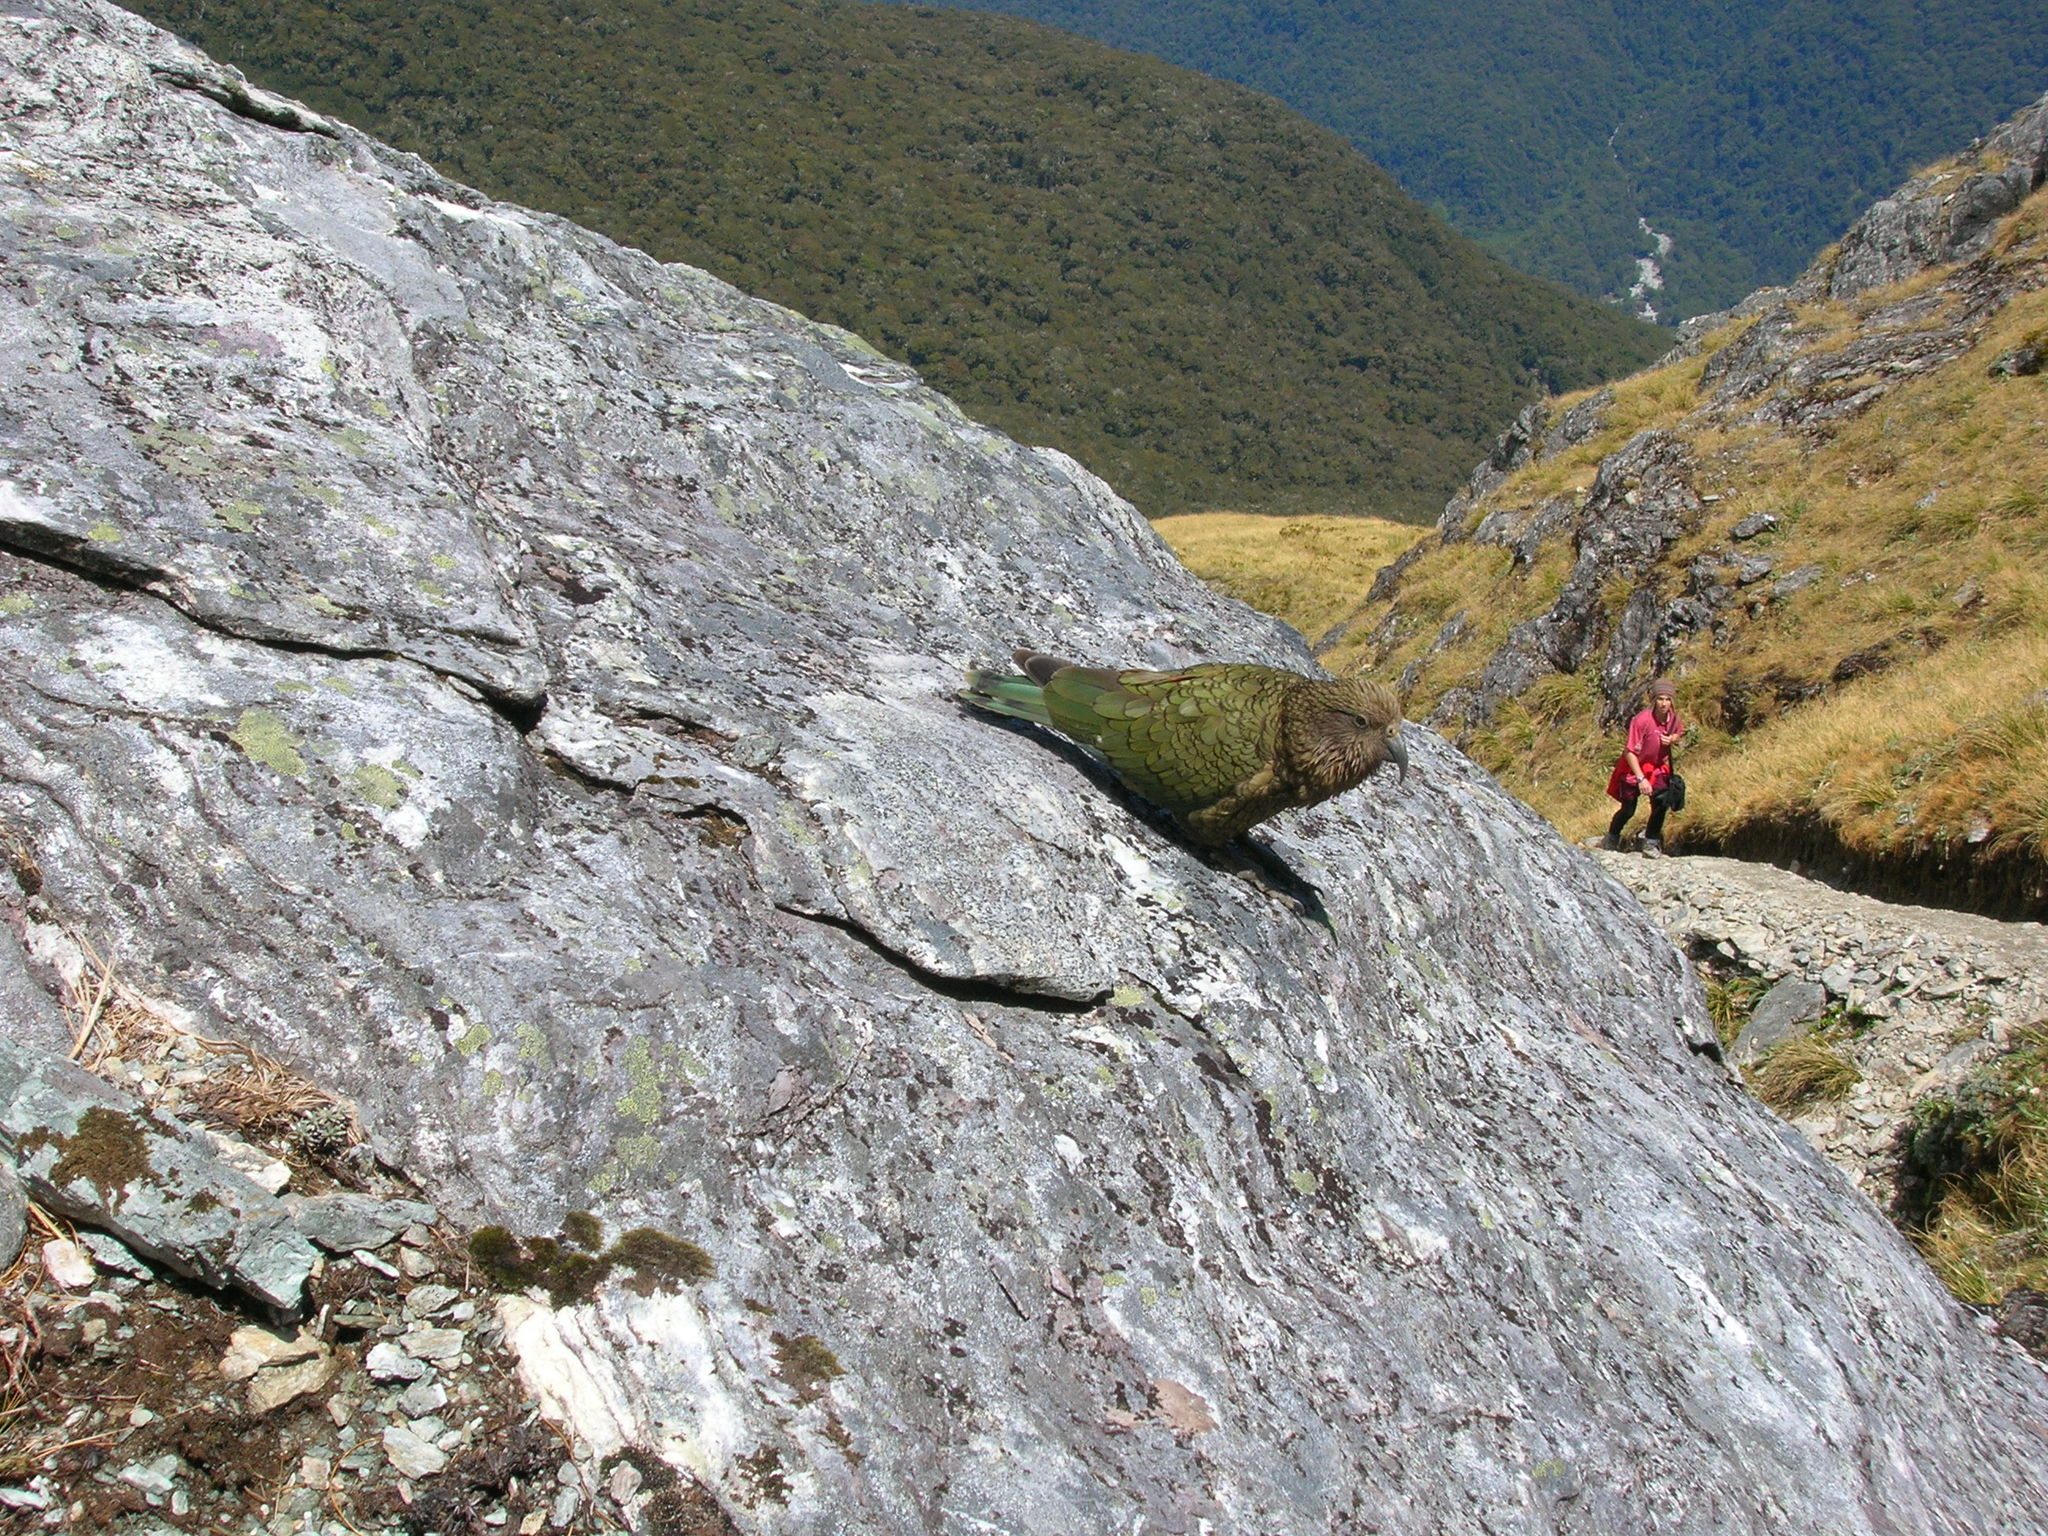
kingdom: Animalia
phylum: Chordata
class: Aves
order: Psittaciformes
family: Psittacidae
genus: Nestor
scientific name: Nestor notabilis
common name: Kea
